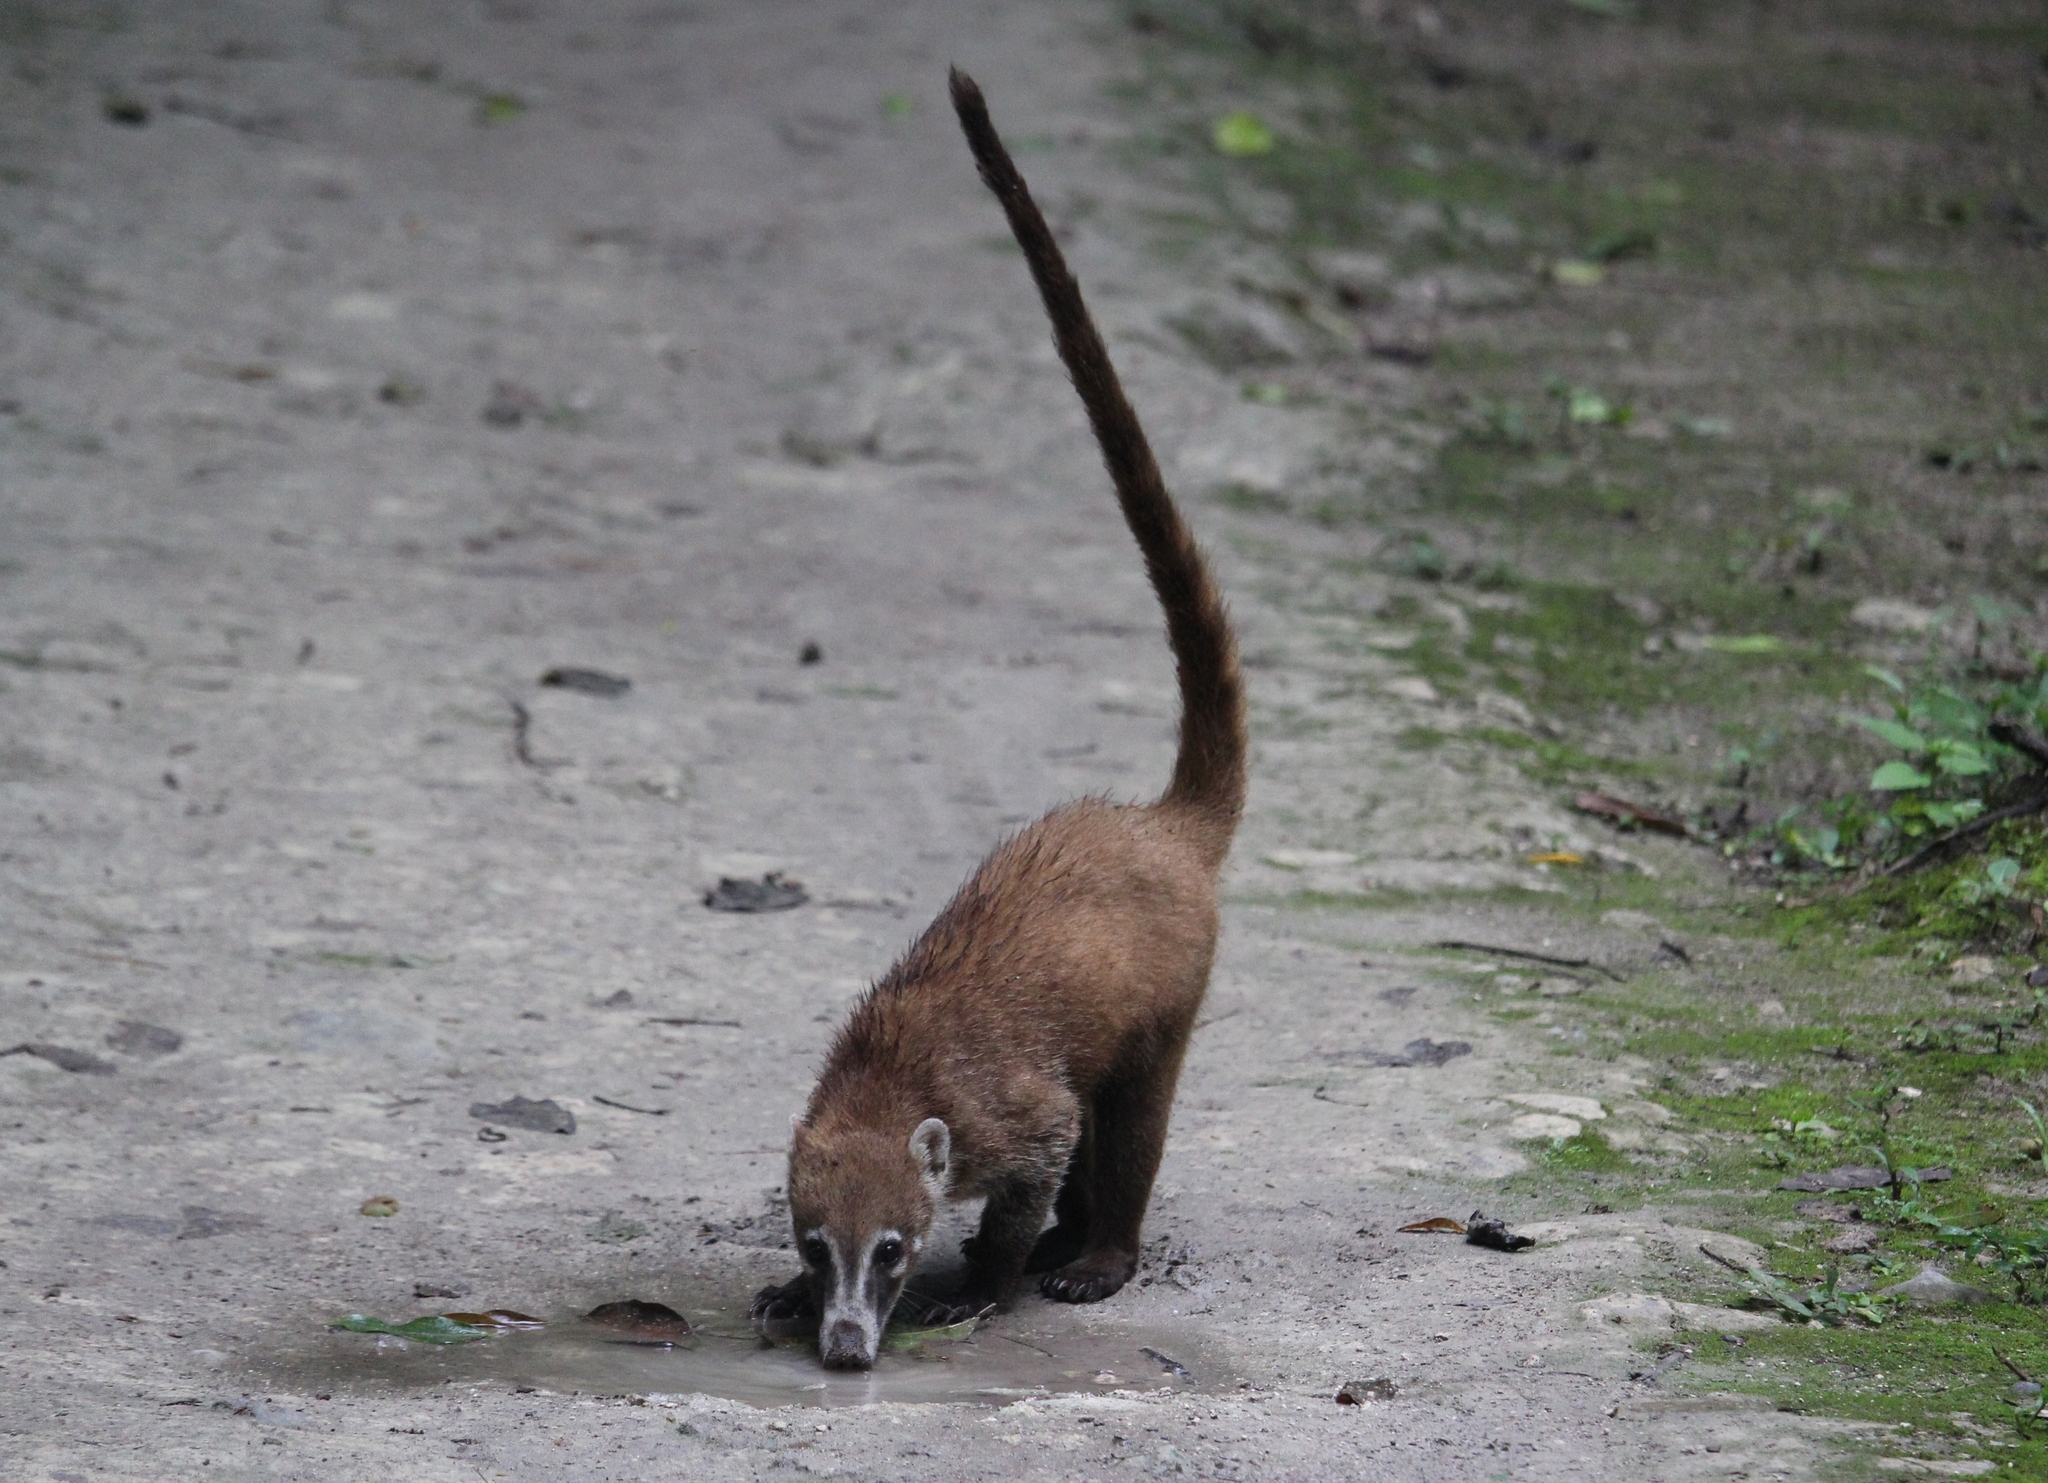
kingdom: Animalia
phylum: Chordata
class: Mammalia
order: Carnivora
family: Procyonidae
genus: Nasua
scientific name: Nasua narica
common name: White-nosed coati
